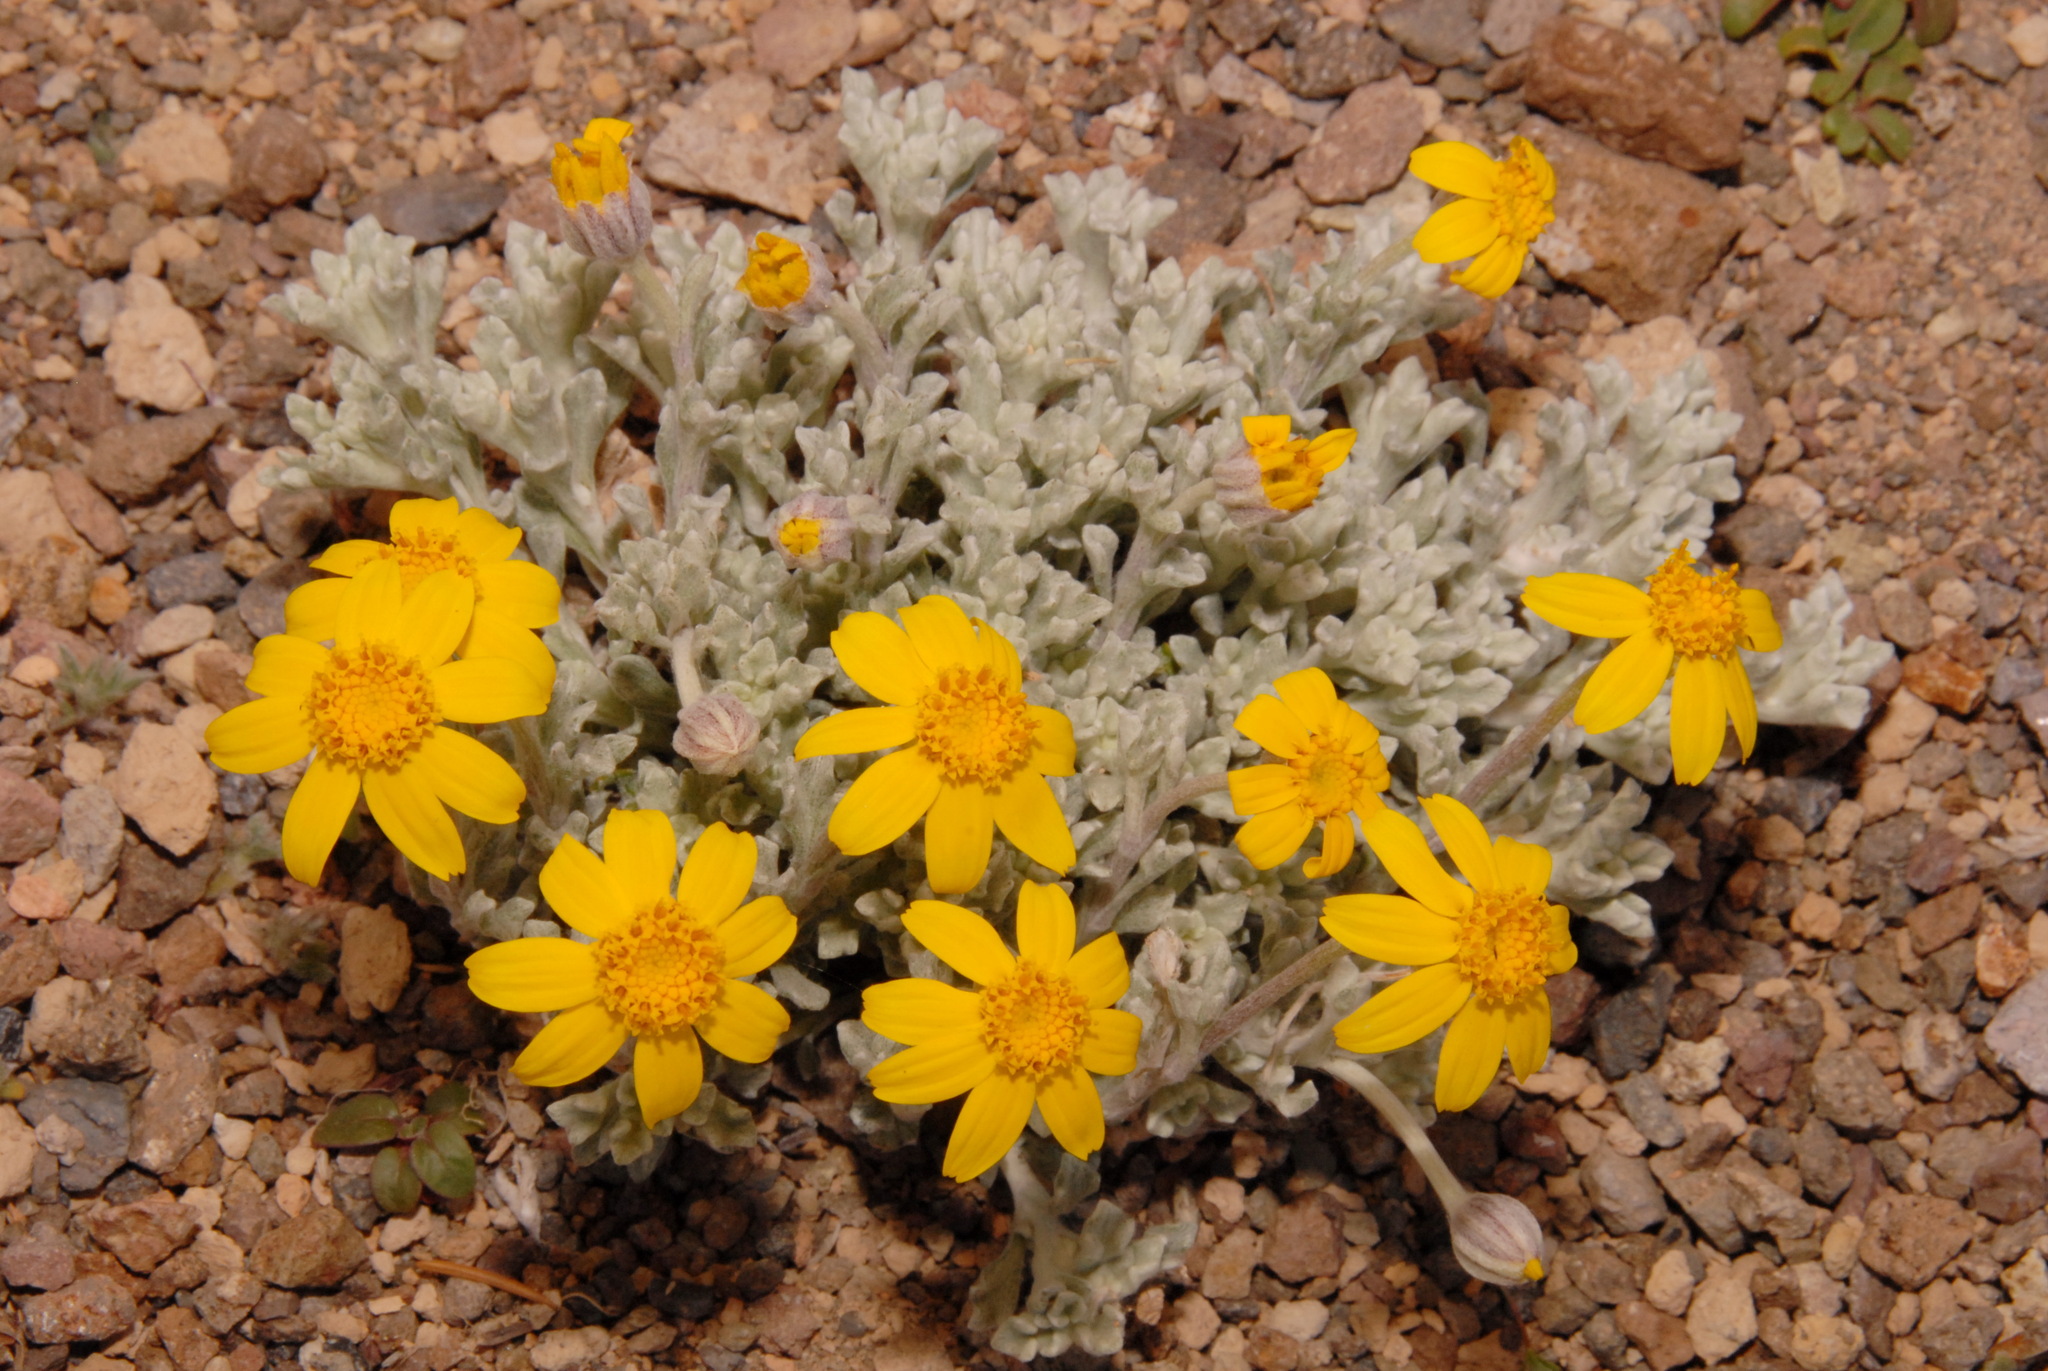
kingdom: Plantae
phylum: Tracheophyta
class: Magnoliopsida
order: Asterales
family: Asteraceae
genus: Eriophyllum
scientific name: Eriophyllum lanatum
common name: Common woolly-sunflower
